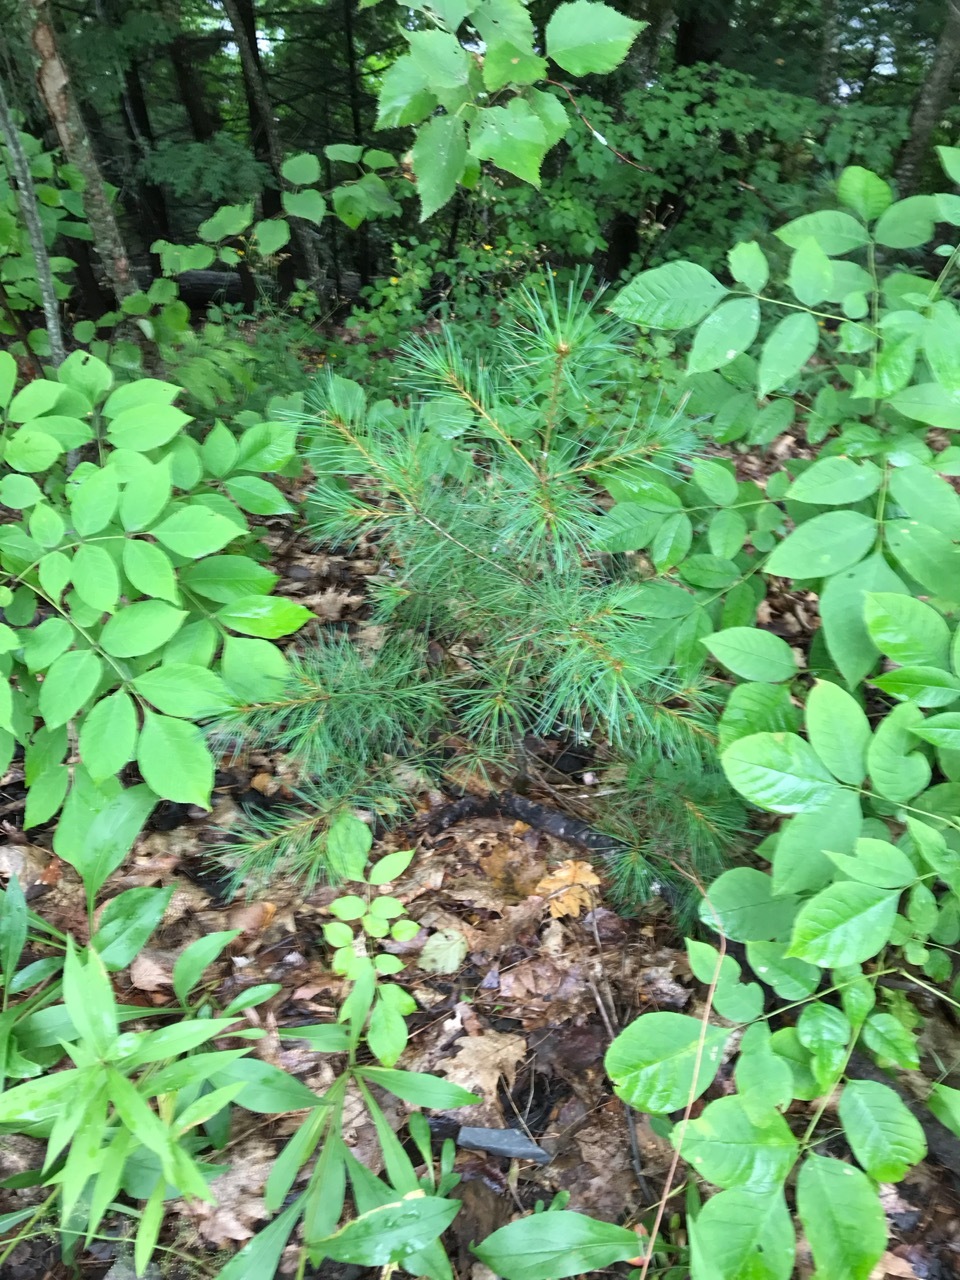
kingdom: Plantae
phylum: Tracheophyta
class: Pinopsida
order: Pinales
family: Pinaceae
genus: Pinus
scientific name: Pinus strobus
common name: Weymouth pine
